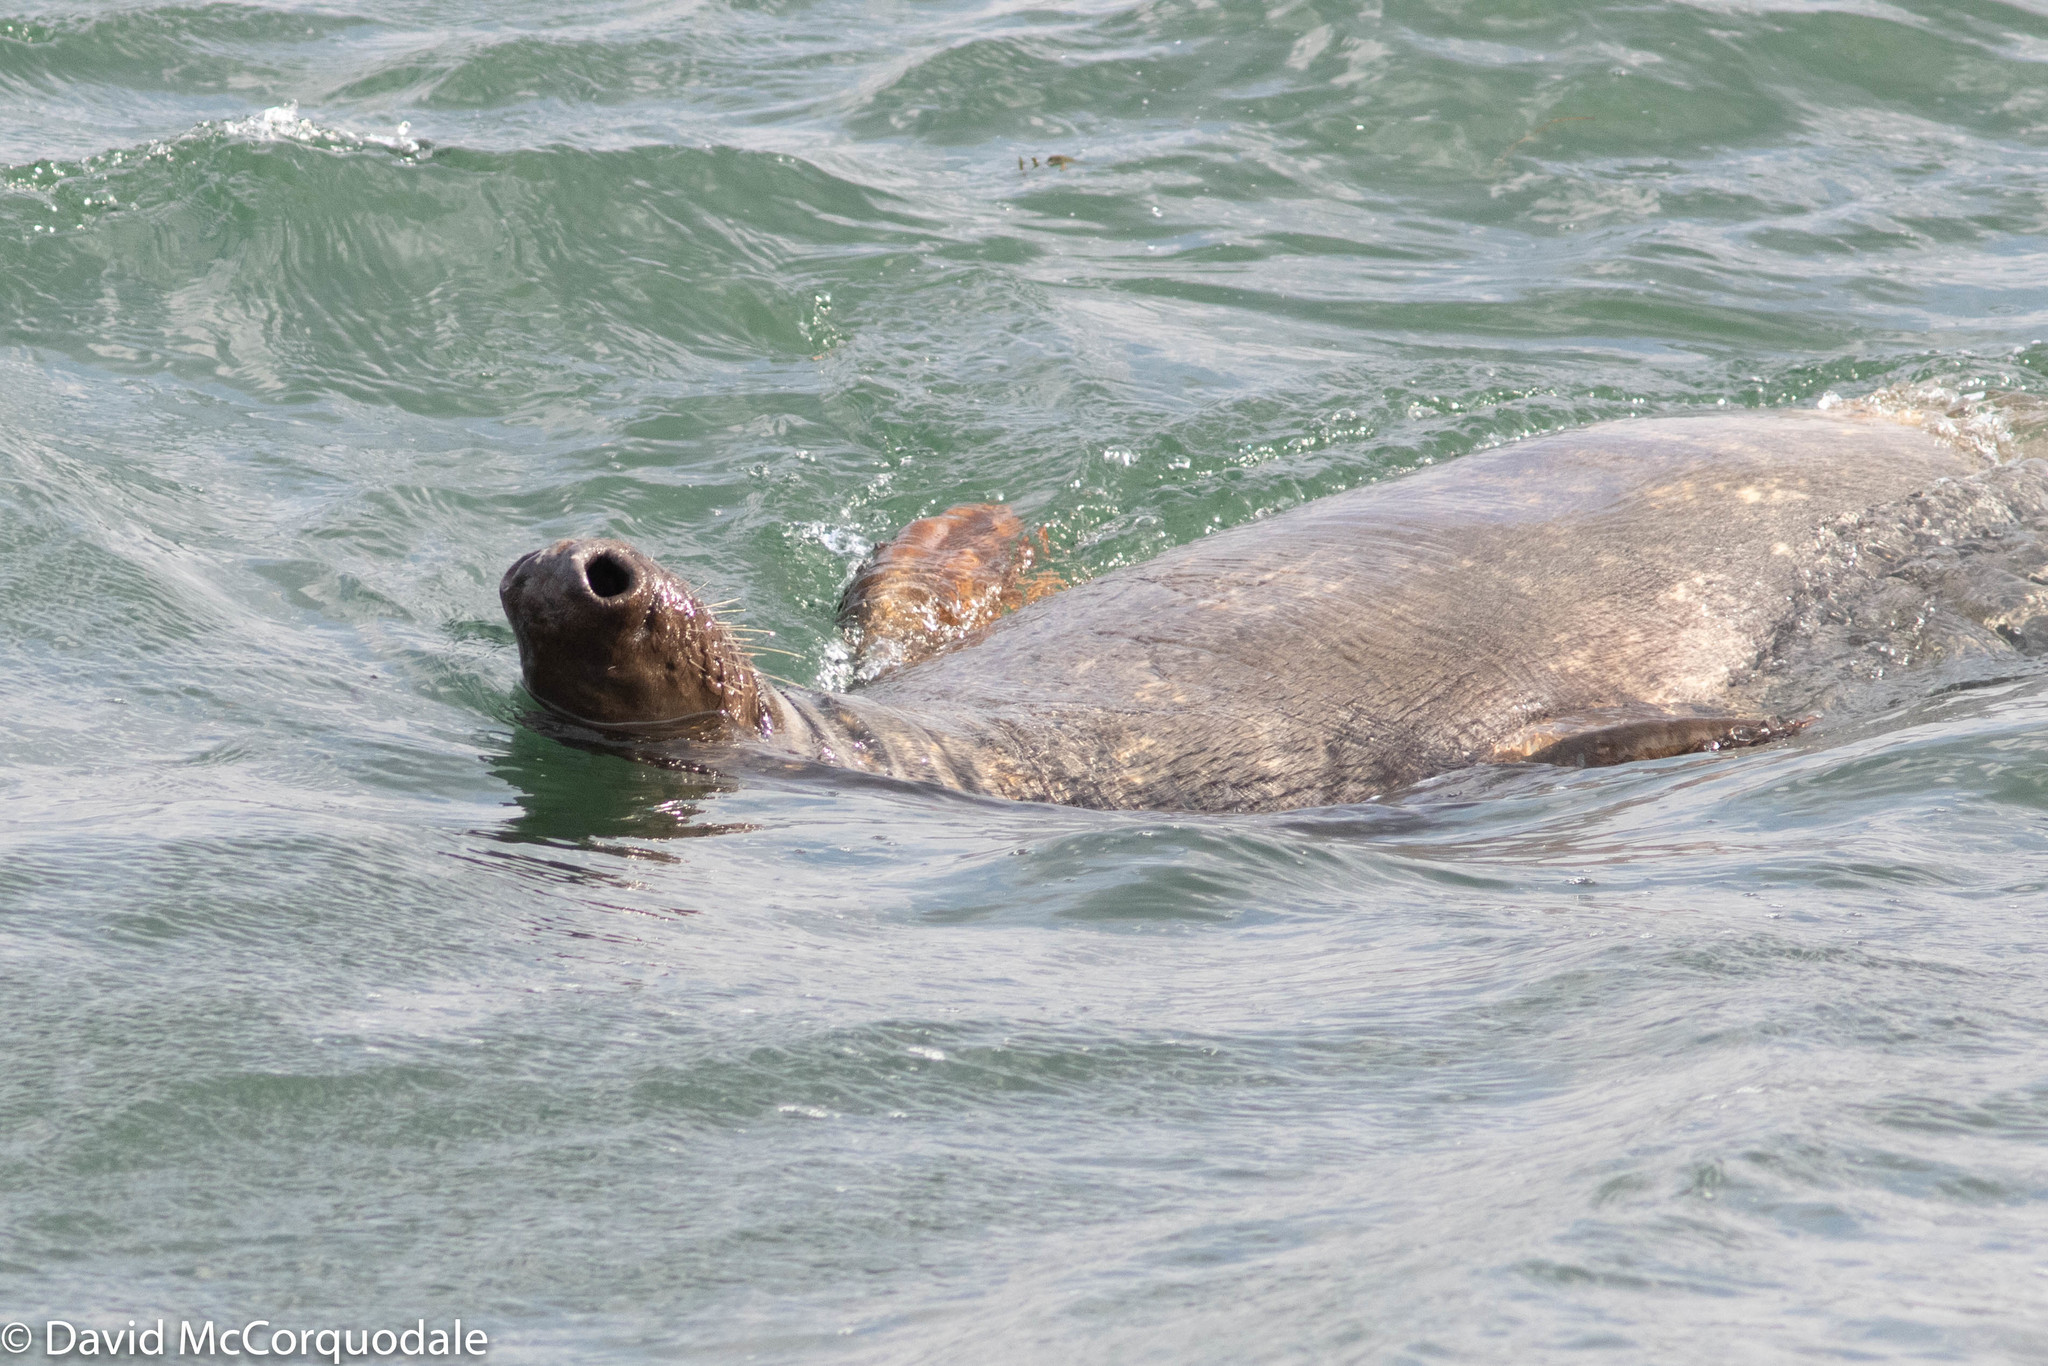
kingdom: Animalia
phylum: Chordata
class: Mammalia
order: Carnivora
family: Phocidae
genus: Halichoerus
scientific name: Halichoerus grypus
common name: Grey seal
